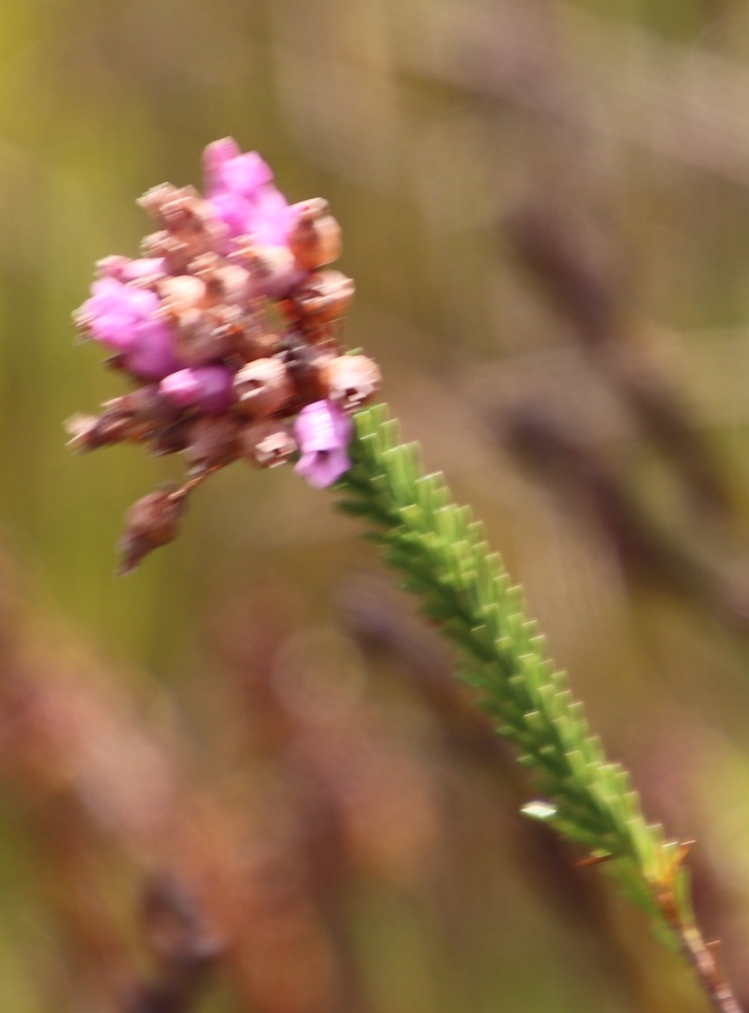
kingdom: Plantae
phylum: Tracheophyta
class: Magnoliopsida
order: Ericales
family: Ericaceae
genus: Erica
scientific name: Erica obliqua
